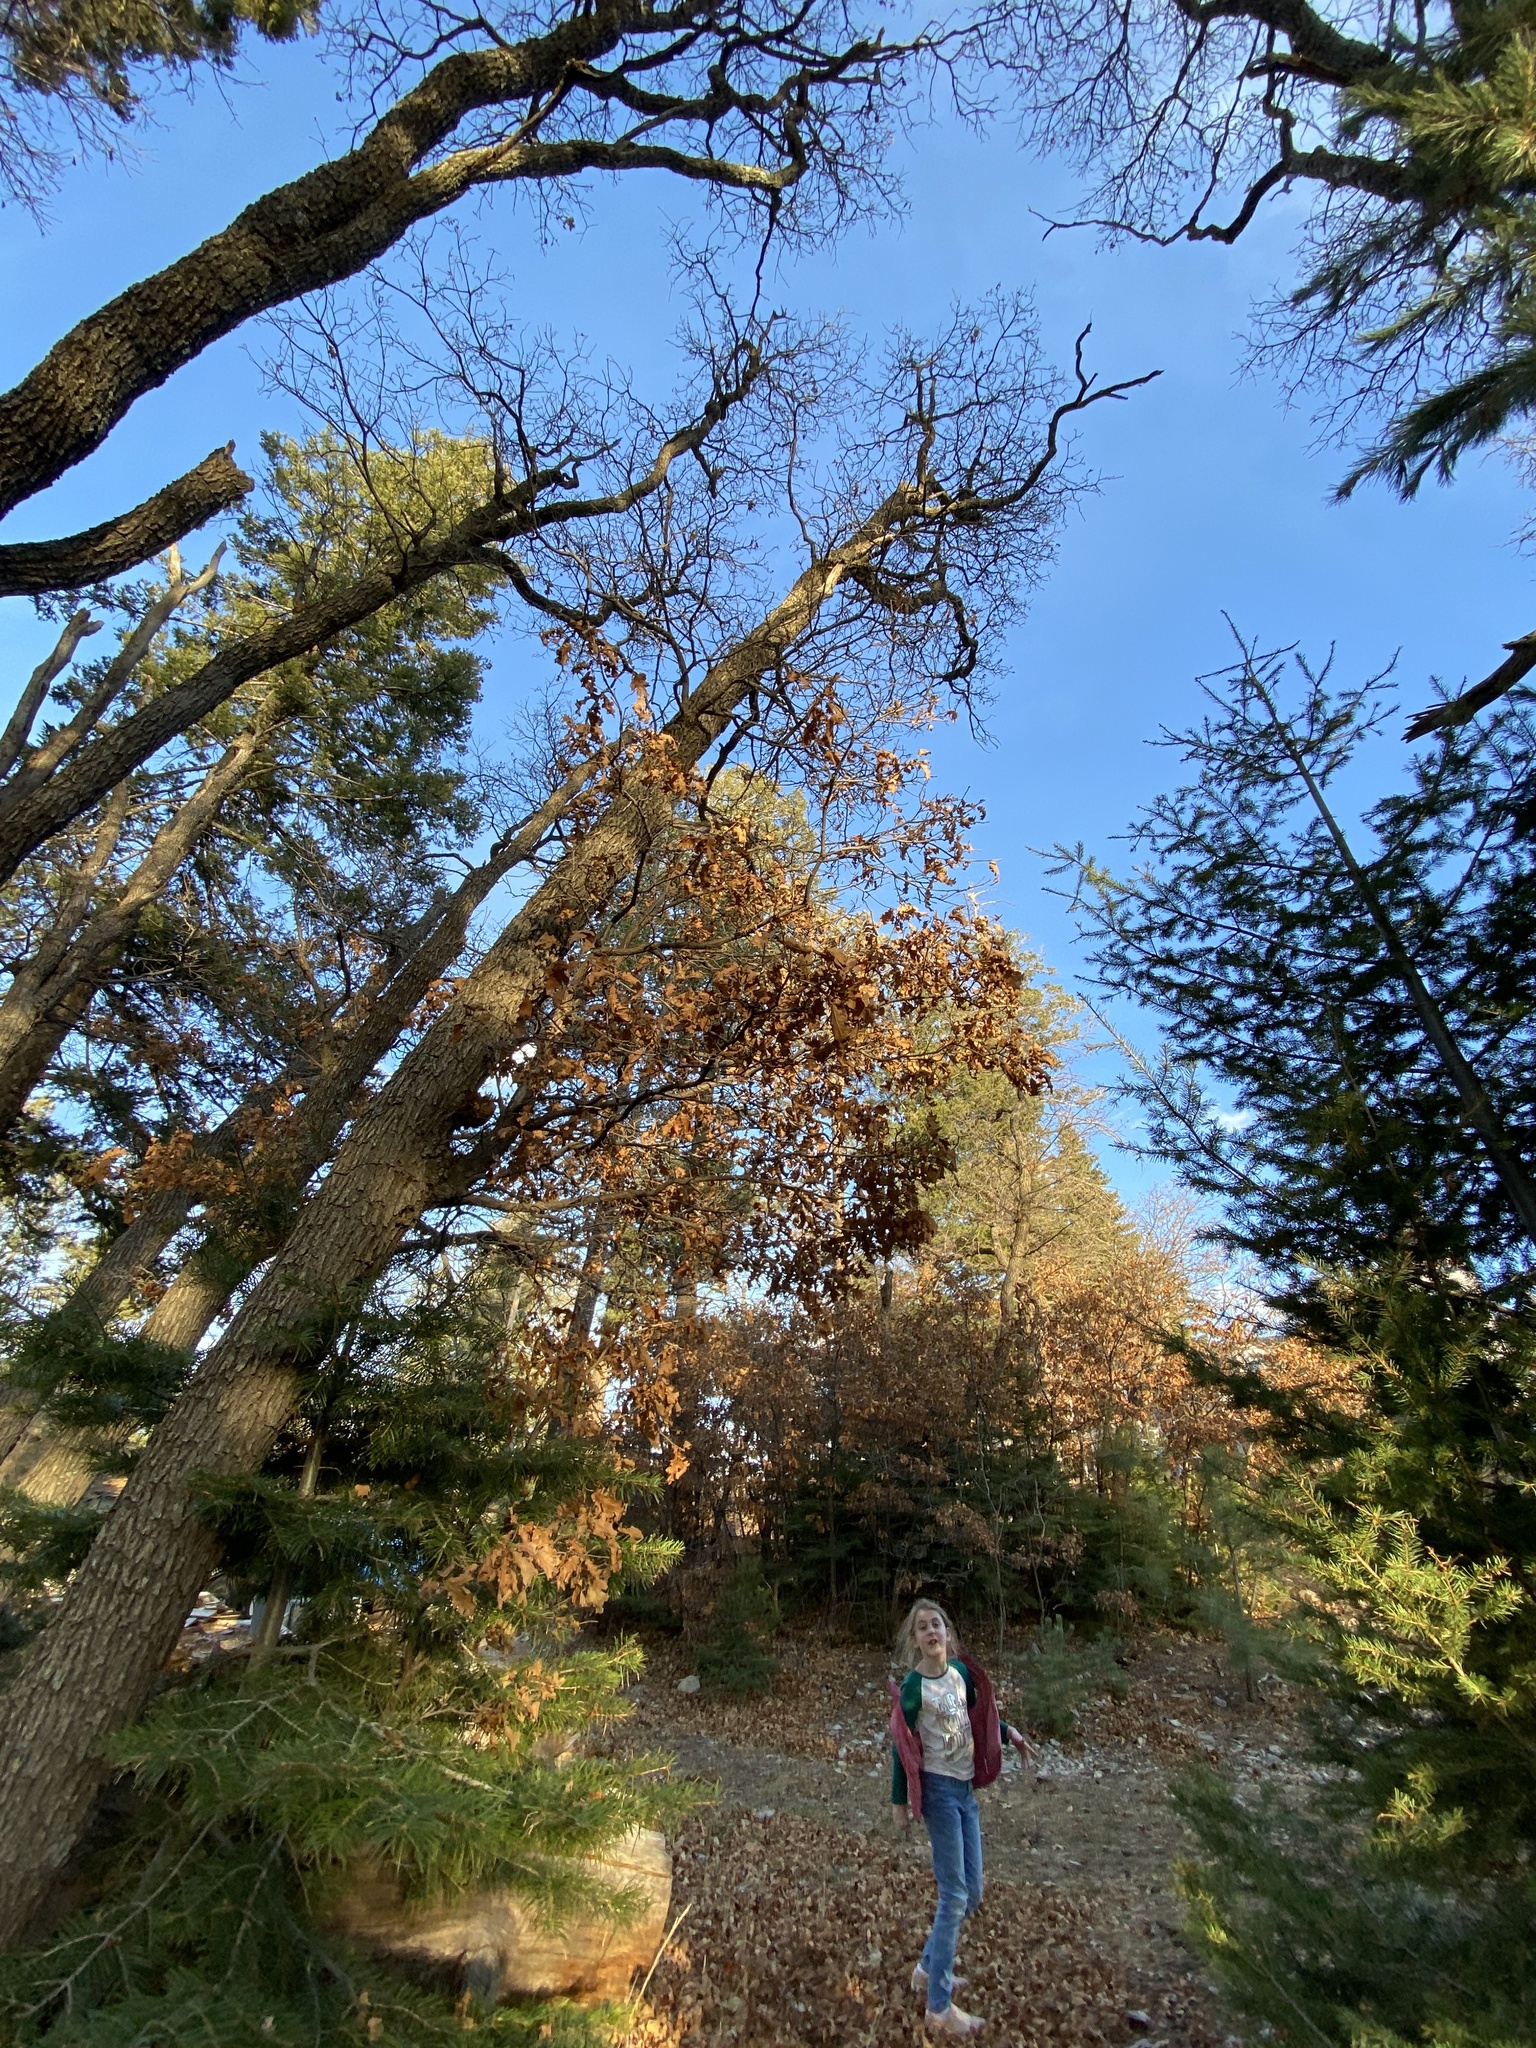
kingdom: Plantae
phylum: Tracheophyta
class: Magnoliopsida
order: Fagales
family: Fagaceae
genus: Quercus
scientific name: Quercus gambelii
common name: Gambel oak
